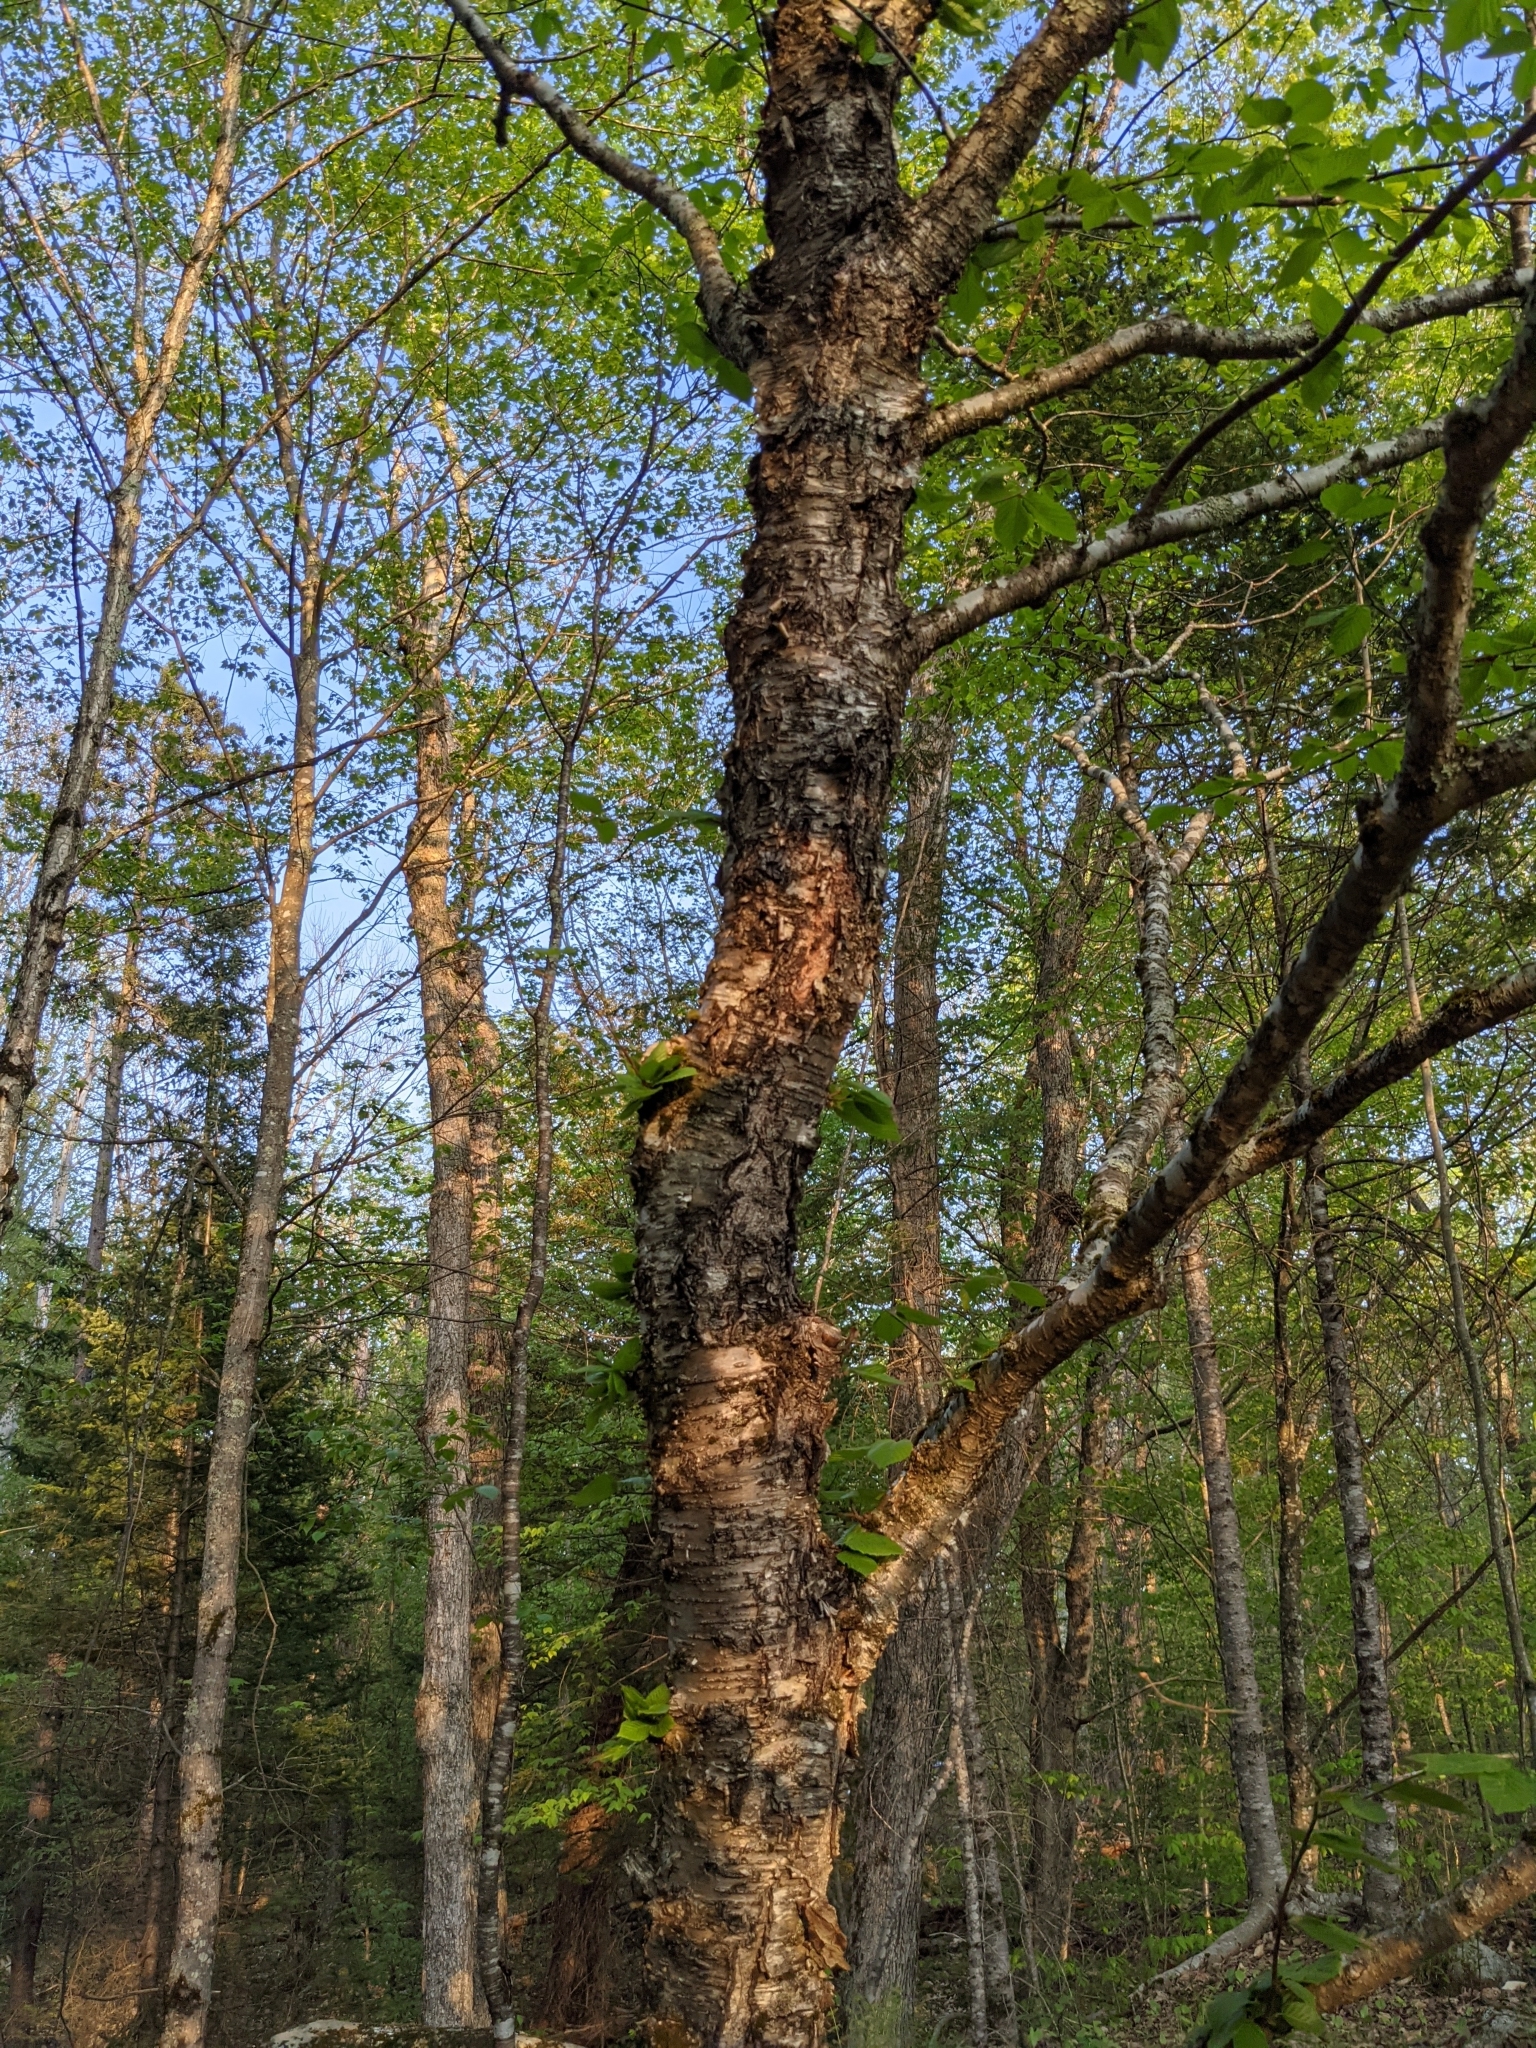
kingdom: Plantae
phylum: Tracheophyta
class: Magnoliopsida
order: Fagales
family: Betulaceae
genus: Betula
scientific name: Betula alleghaniensis
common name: Yellow birch
